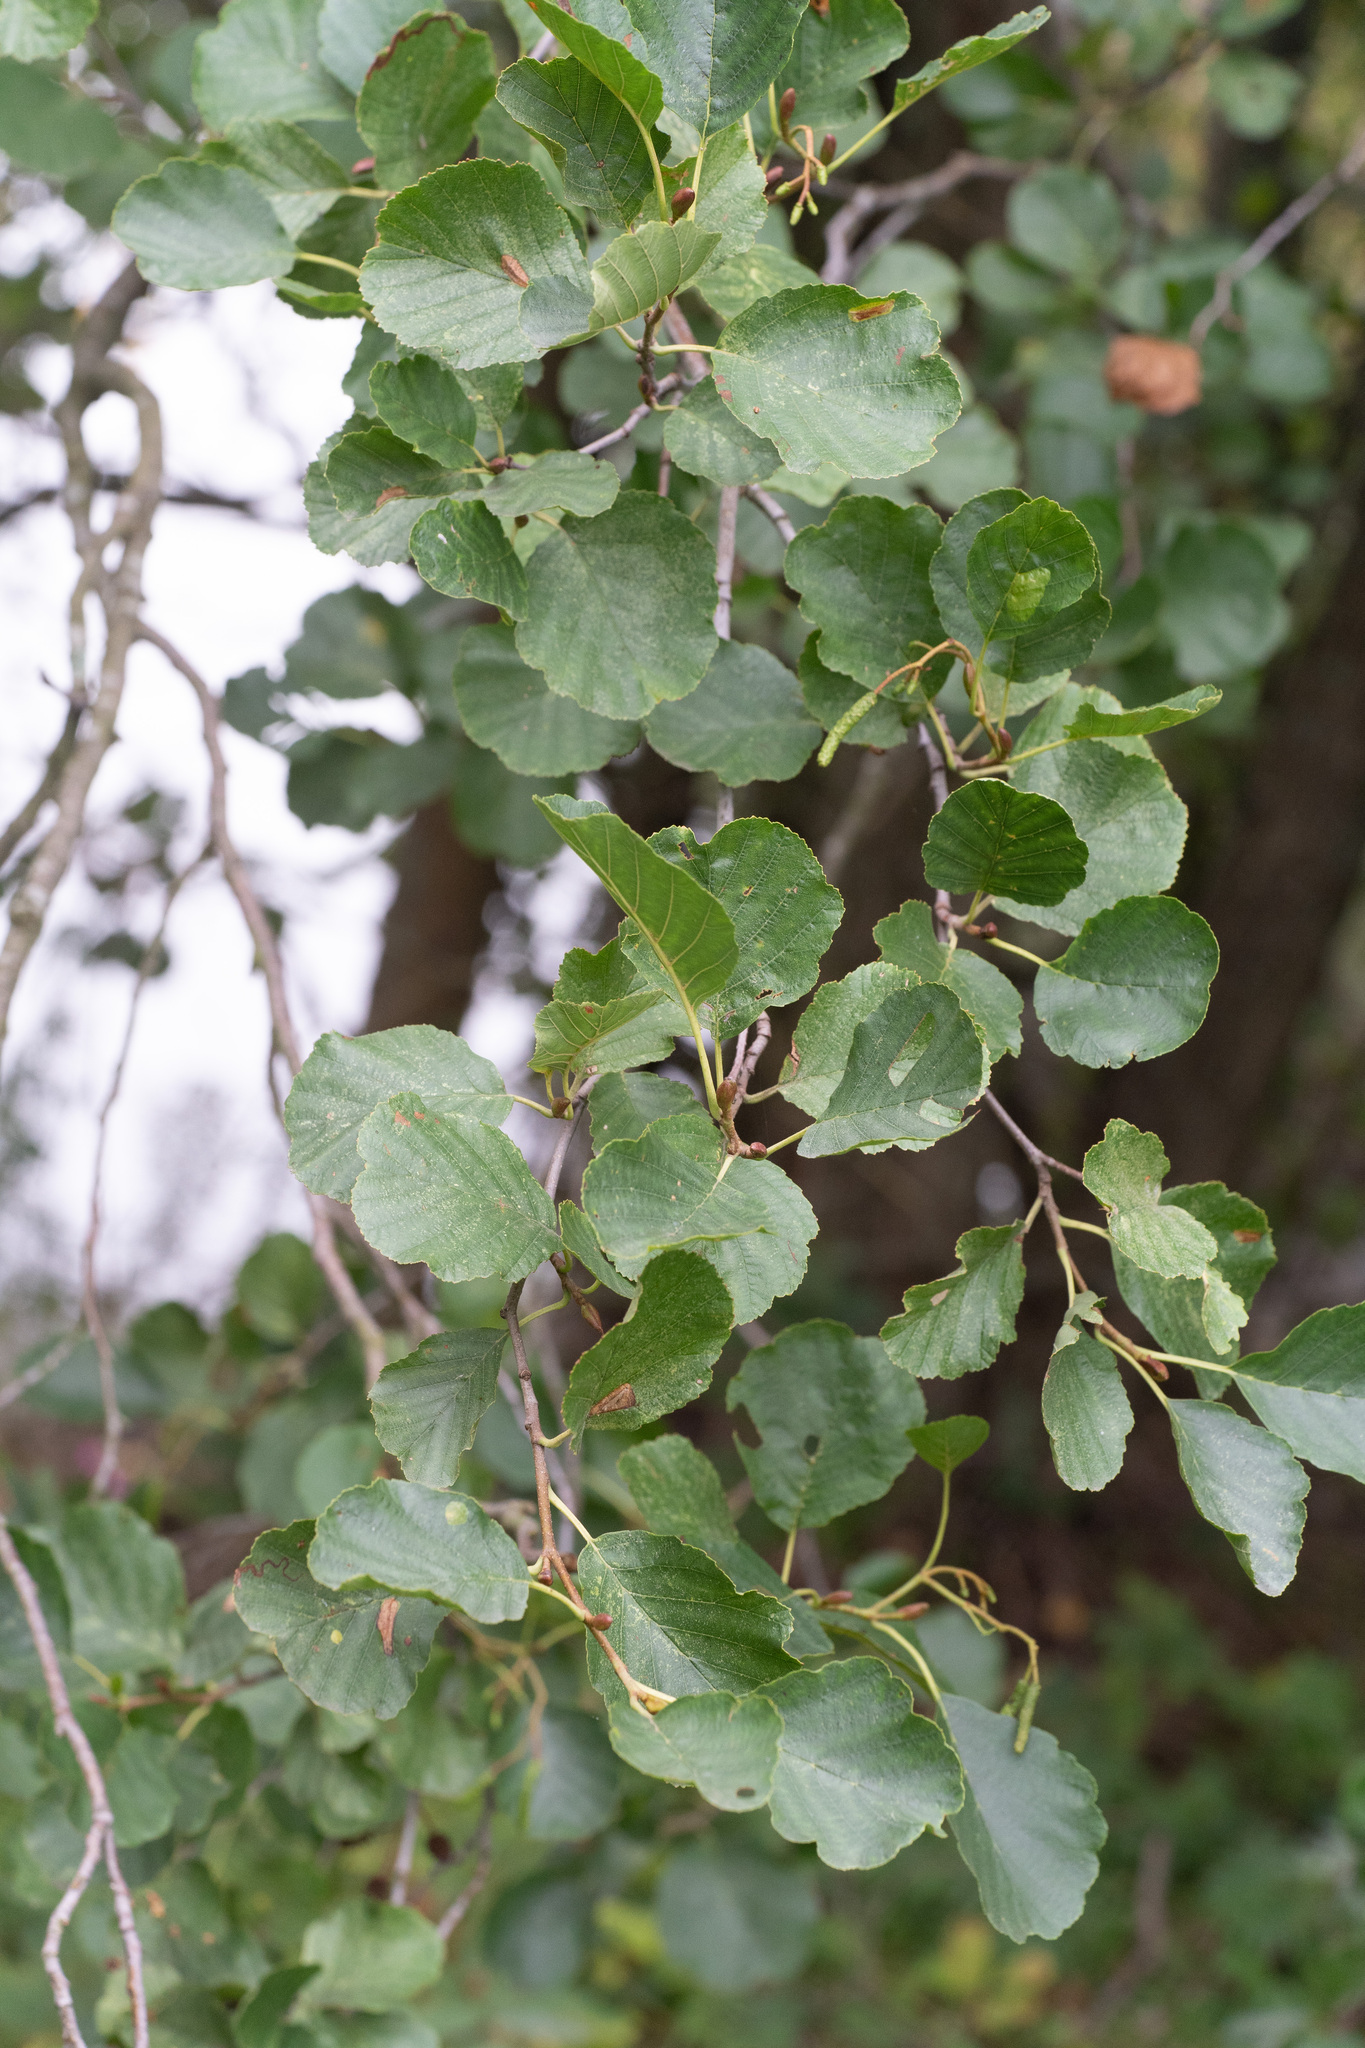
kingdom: Plantae
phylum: Tracheophyta
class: Magnoliopsida
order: Fagales
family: Betulaceae
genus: Alnus
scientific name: Alnus glutinosa
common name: Black alder
